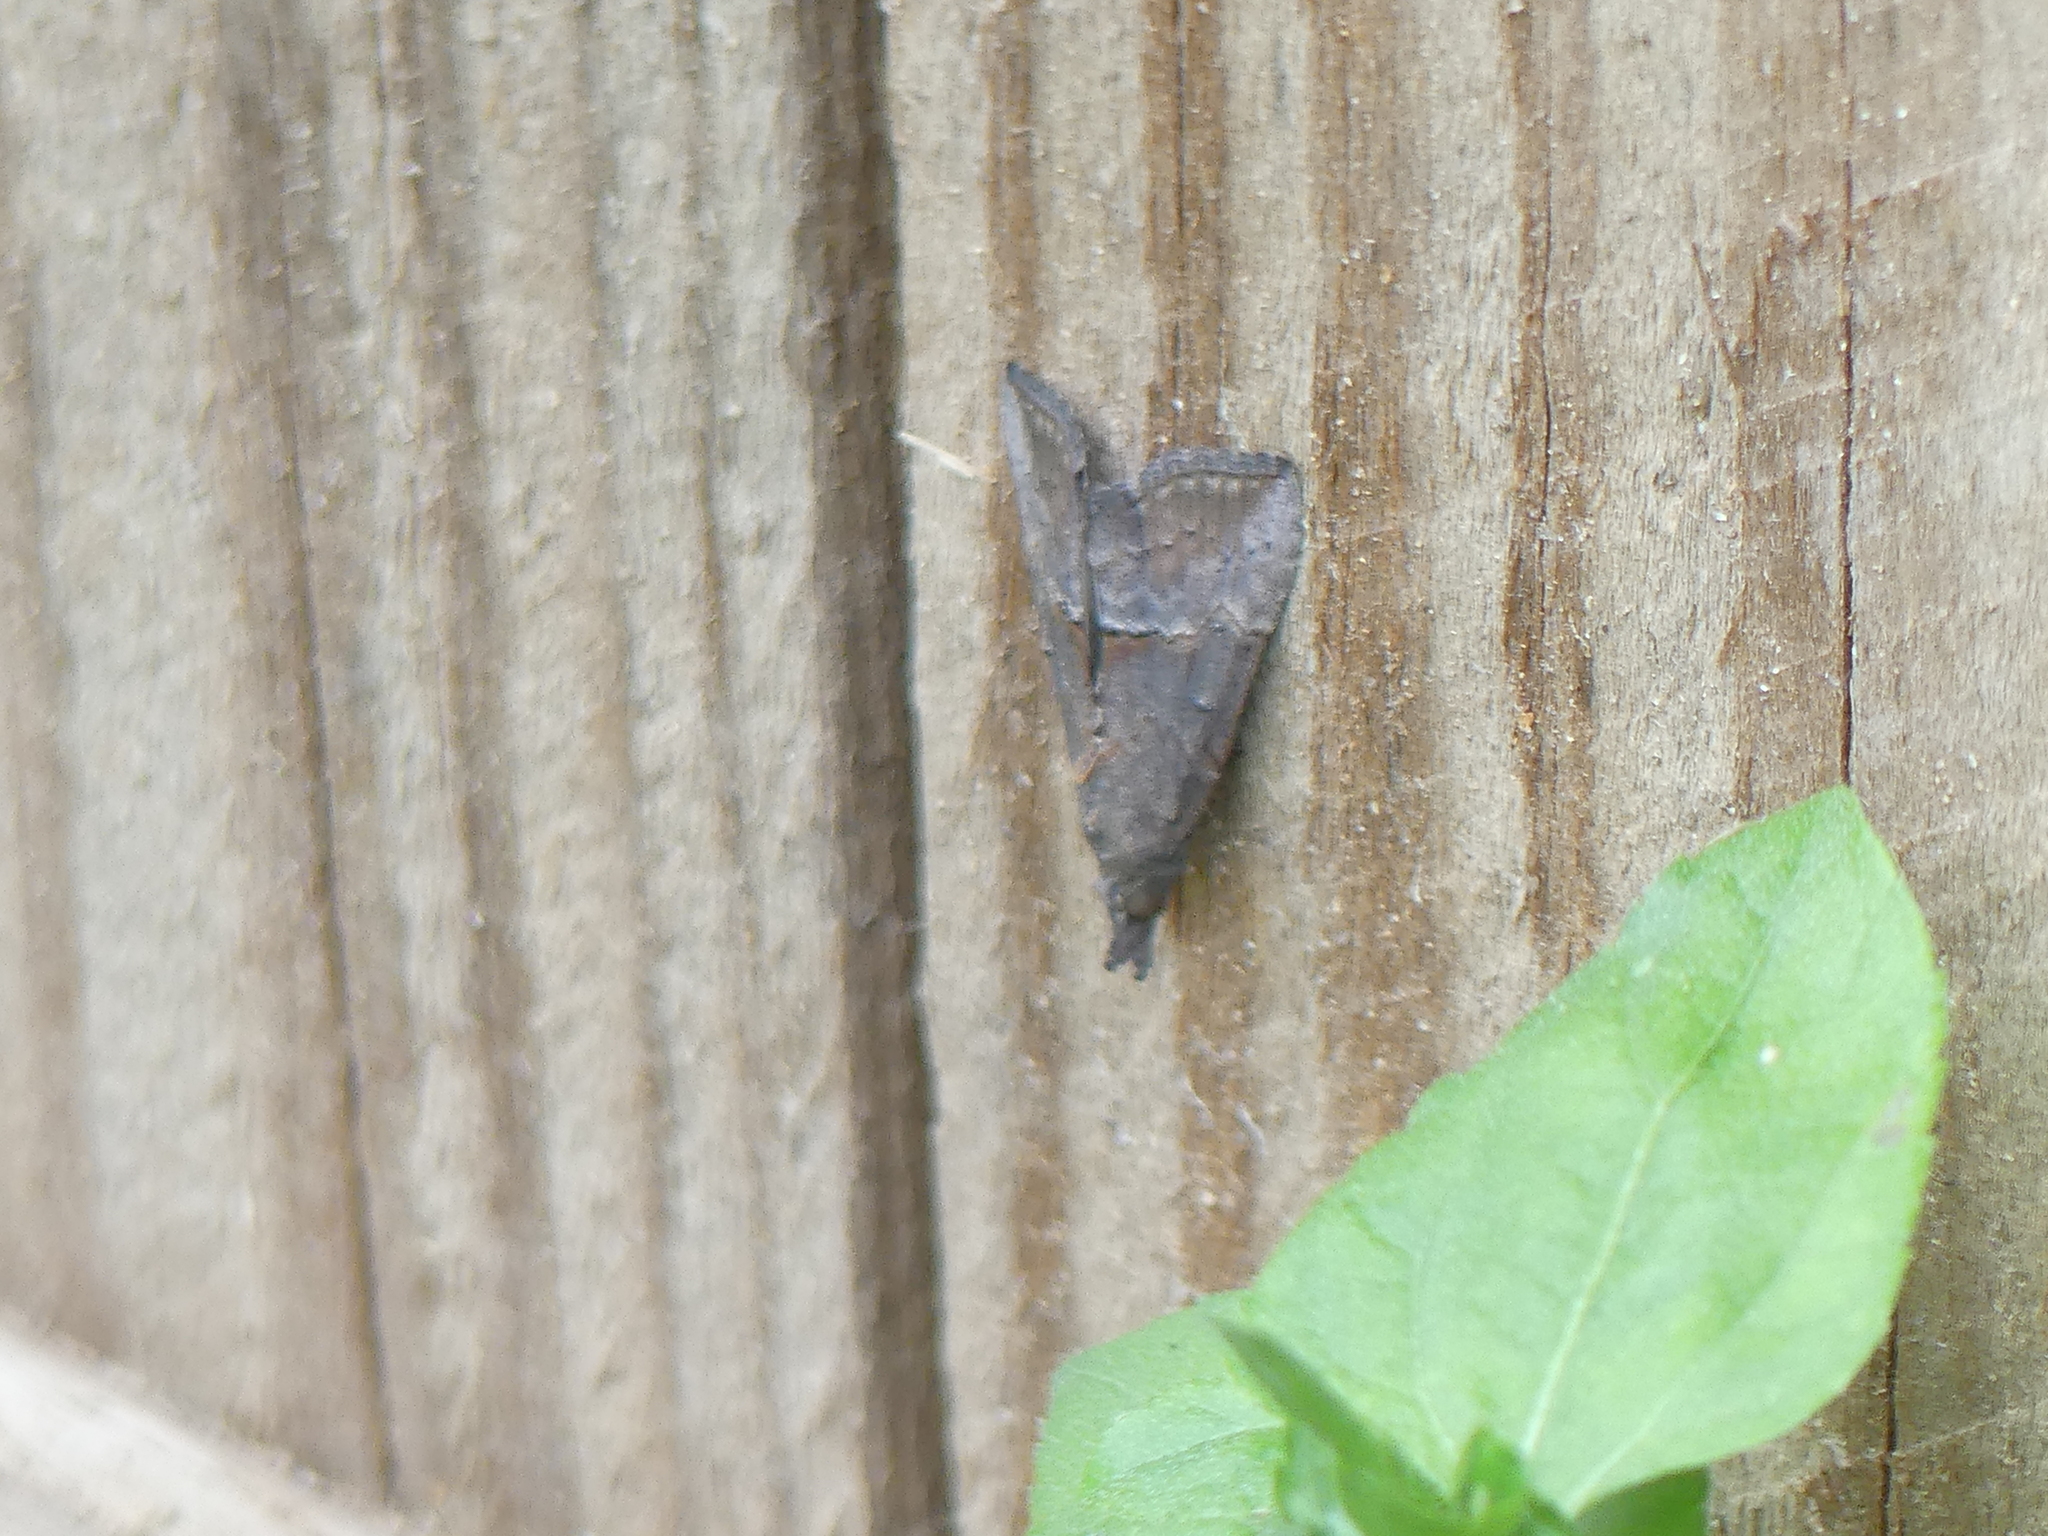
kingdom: Animalia
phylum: Arthropoda
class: Insecta
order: Lepidoptera
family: Erebidae
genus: Hypena
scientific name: Hypena scabra
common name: Green cloverworm
